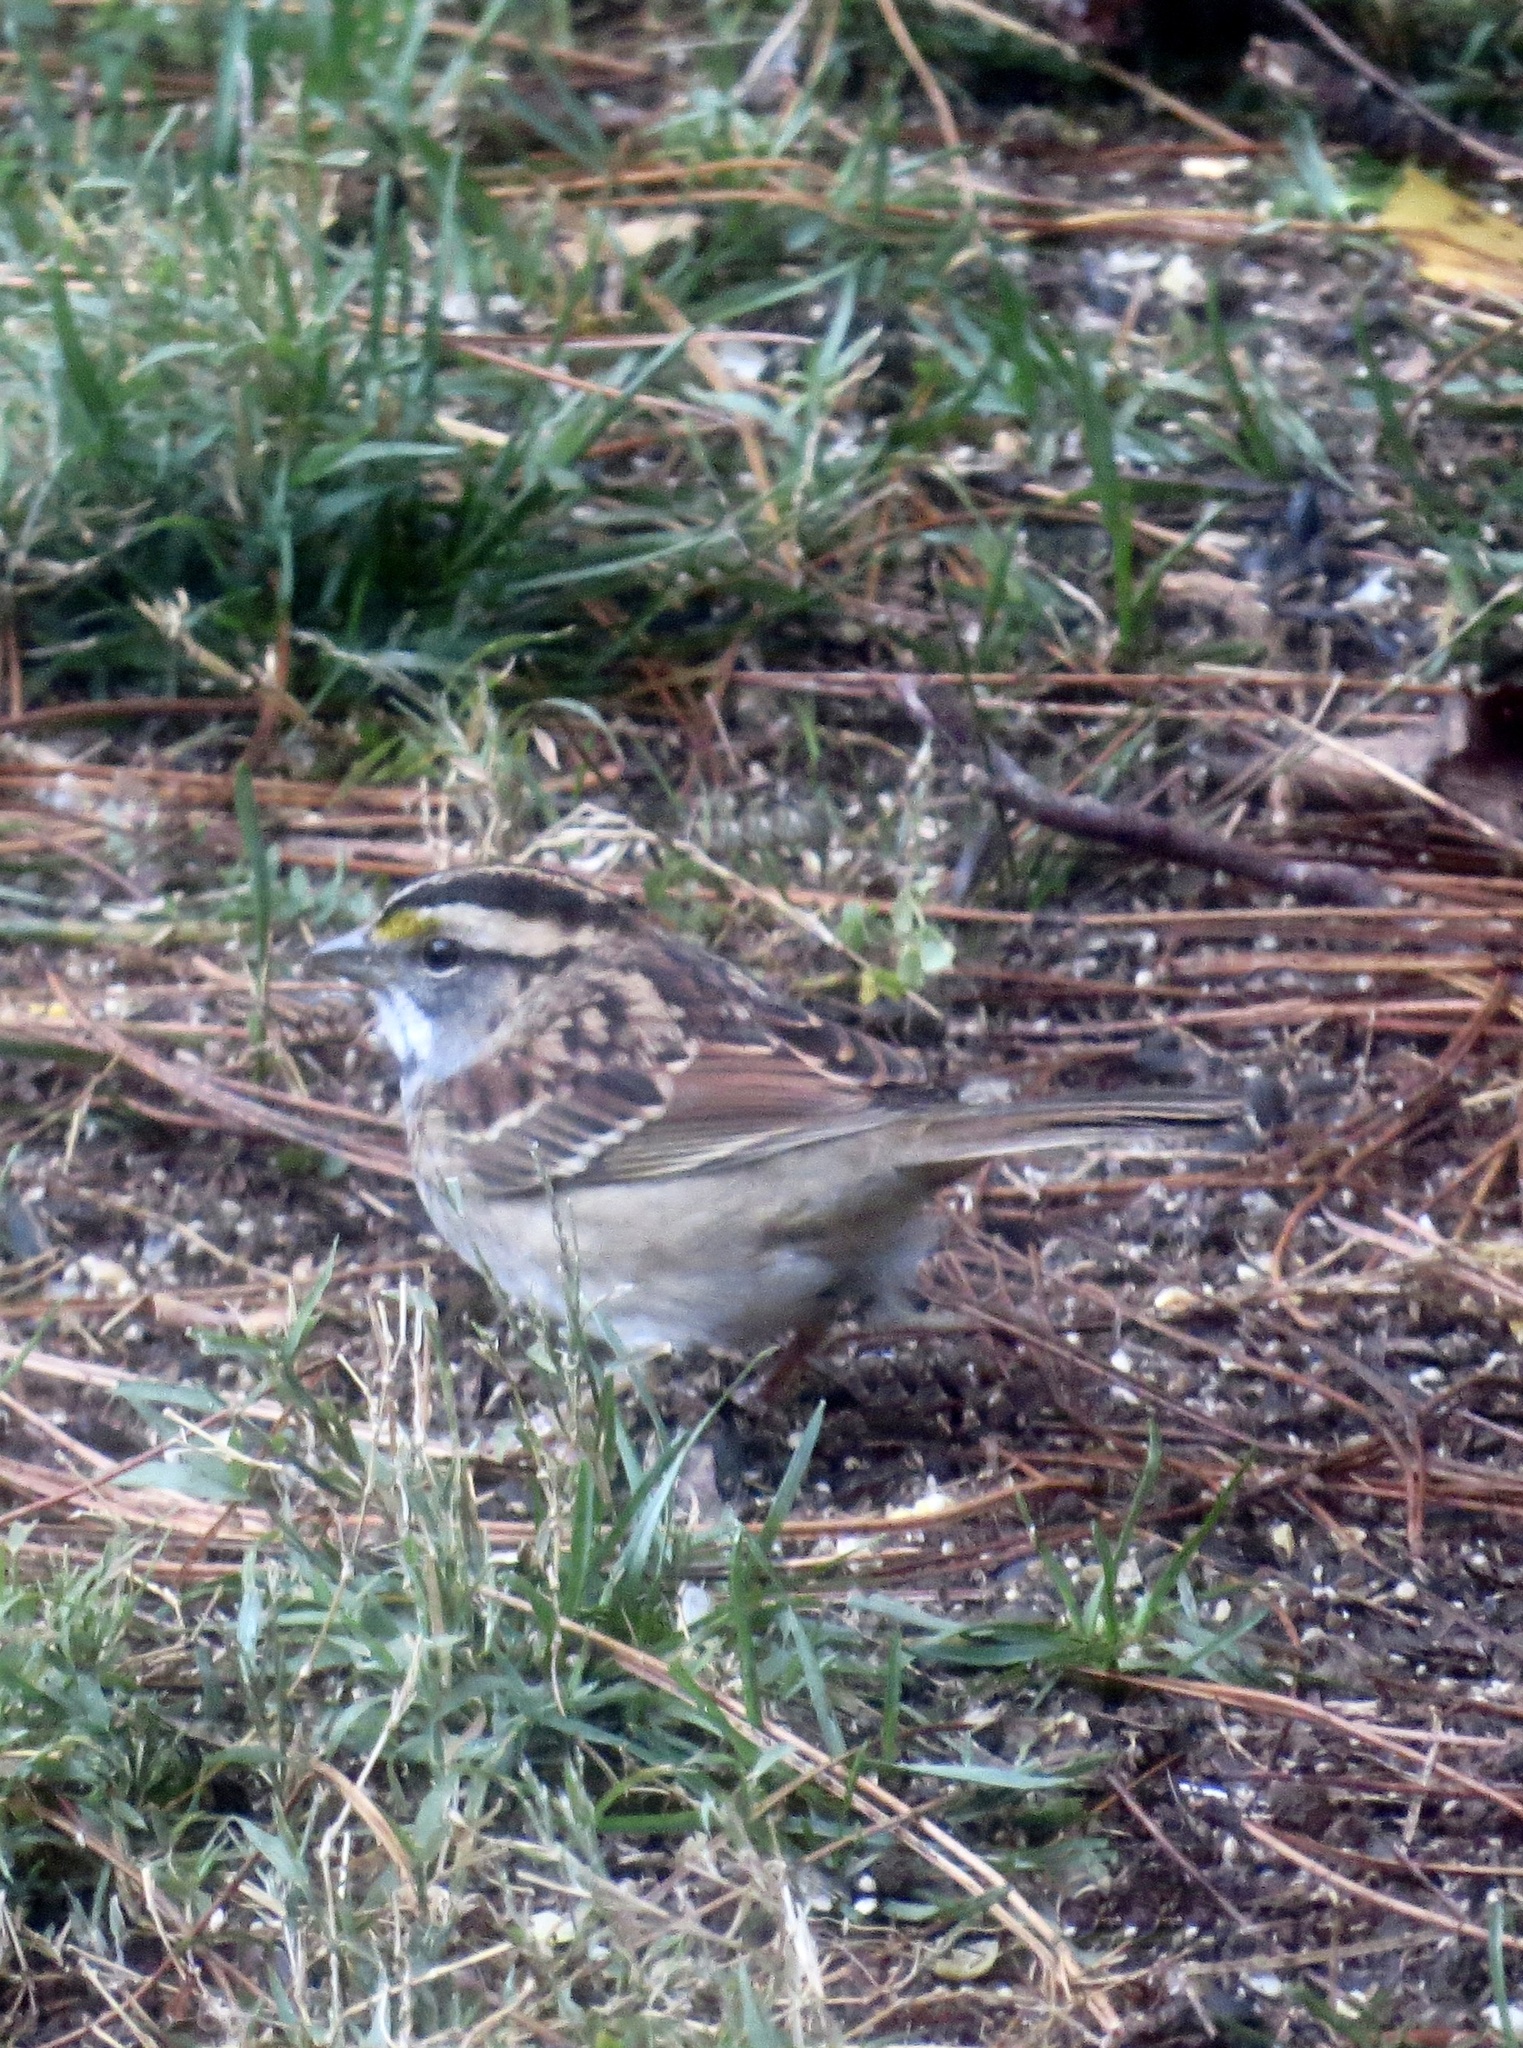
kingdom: Animalia
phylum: Chordata
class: Aves
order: Passeriformes
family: Passerellidae
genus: Zonotrichia
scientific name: Zonotrichia albicollis
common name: White-throated sparrow
